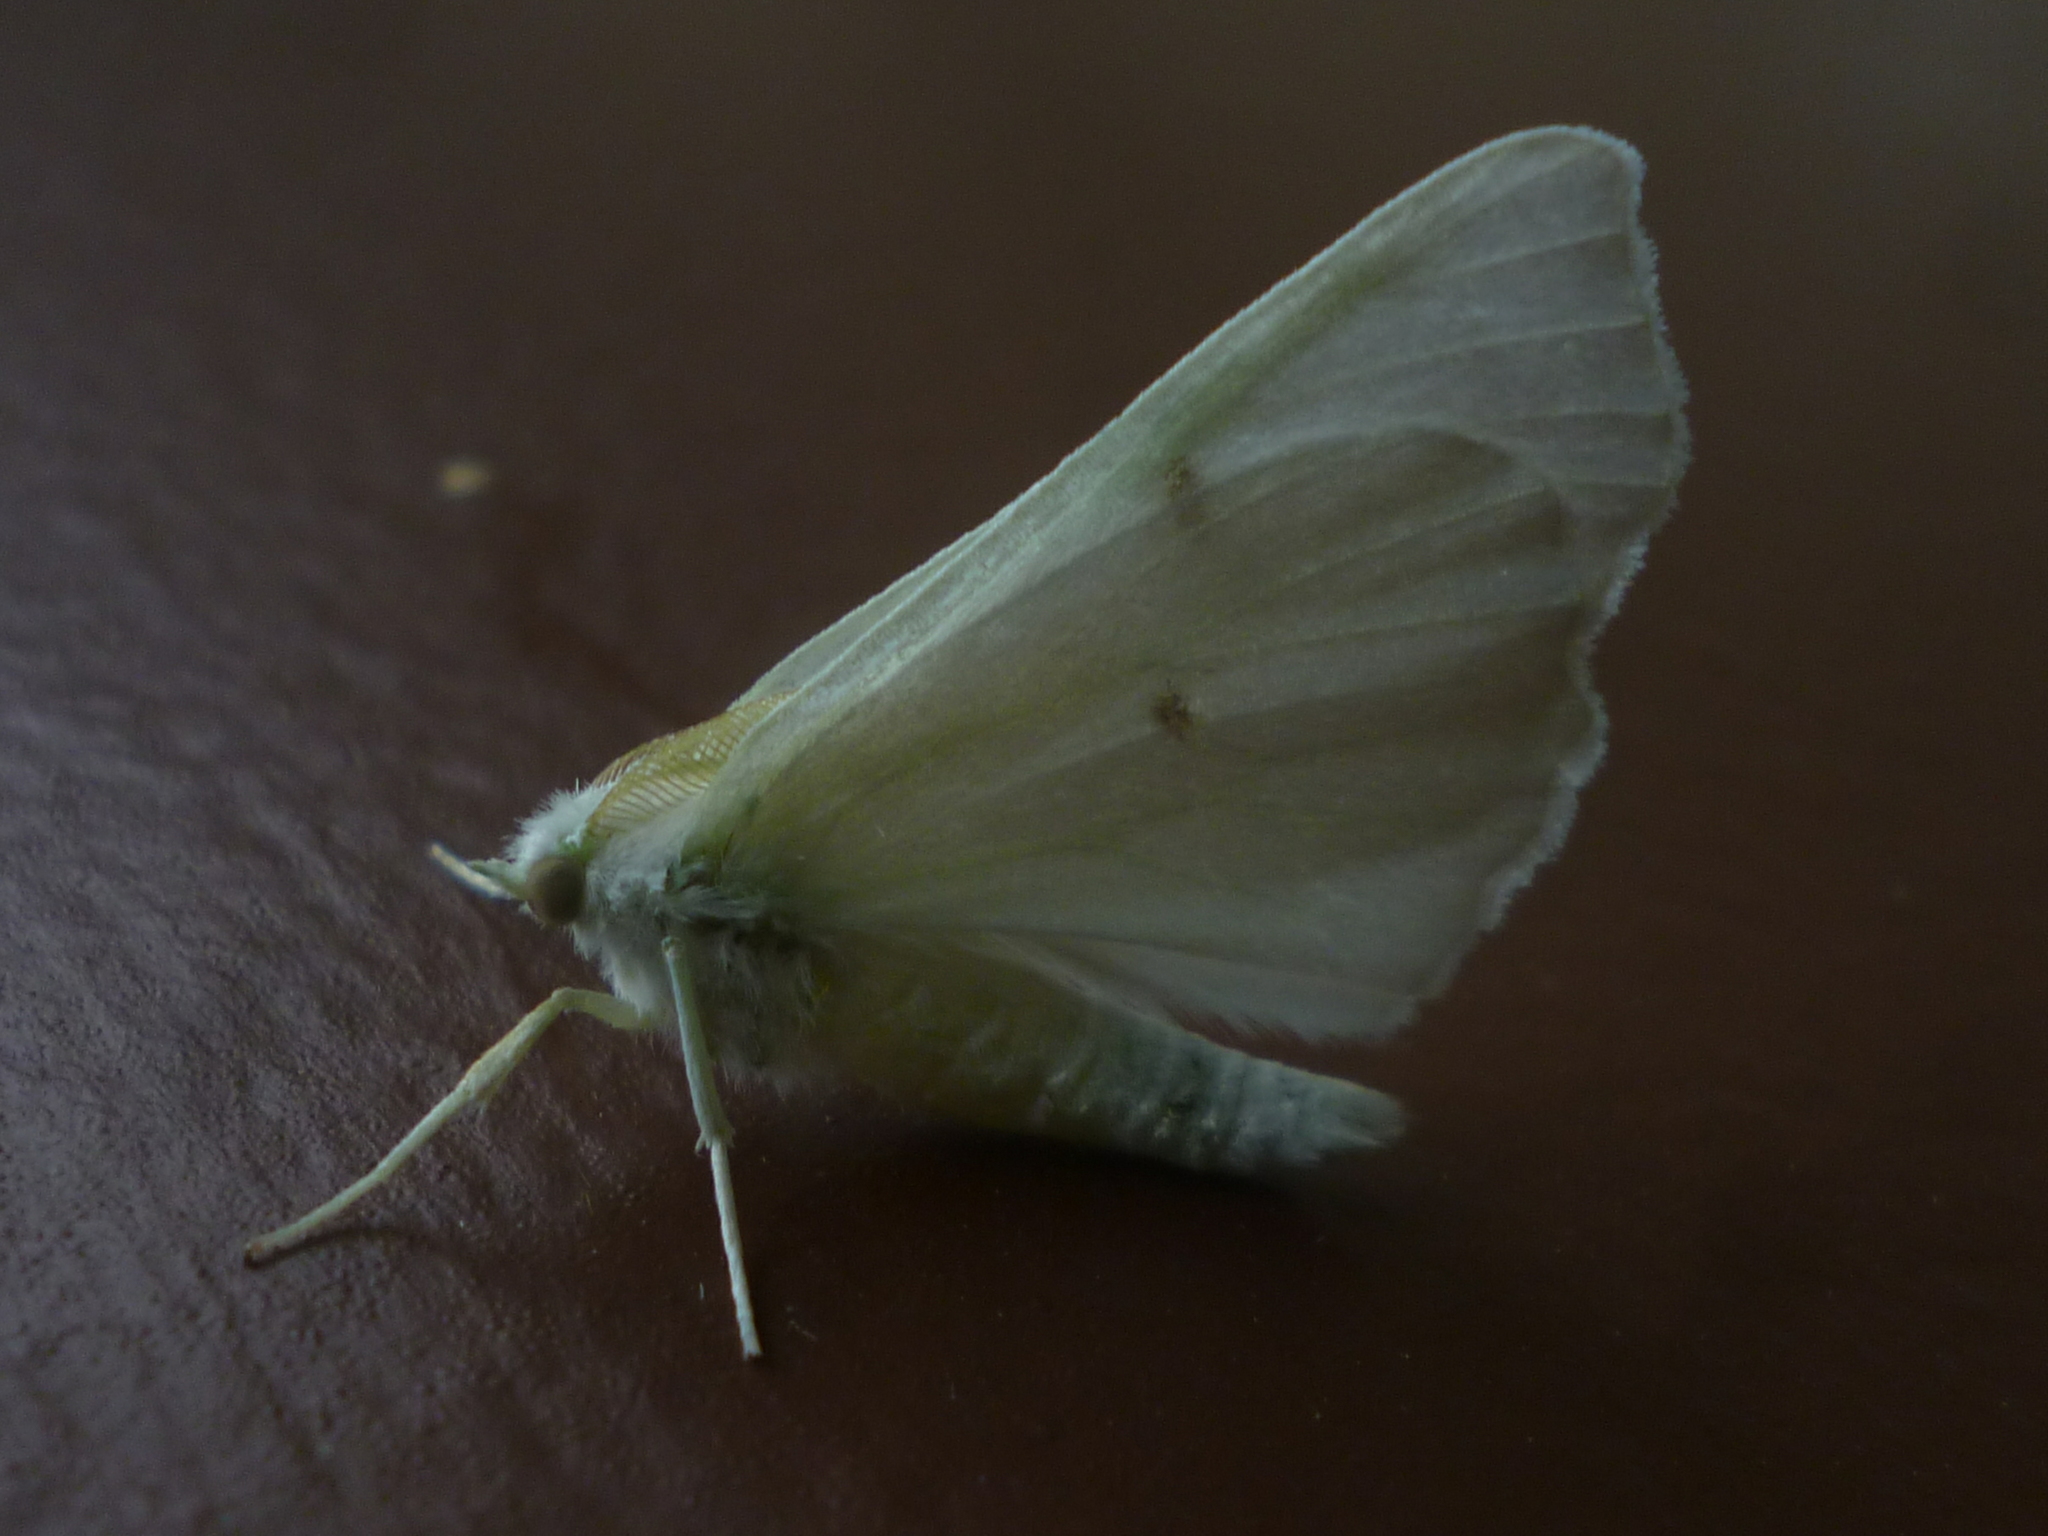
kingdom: Animalia
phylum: Arthropoda
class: Insecta
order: Lepidoptera
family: Geometridae
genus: Ennomos
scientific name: Ennomos subsignaria
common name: Elm spanworm
